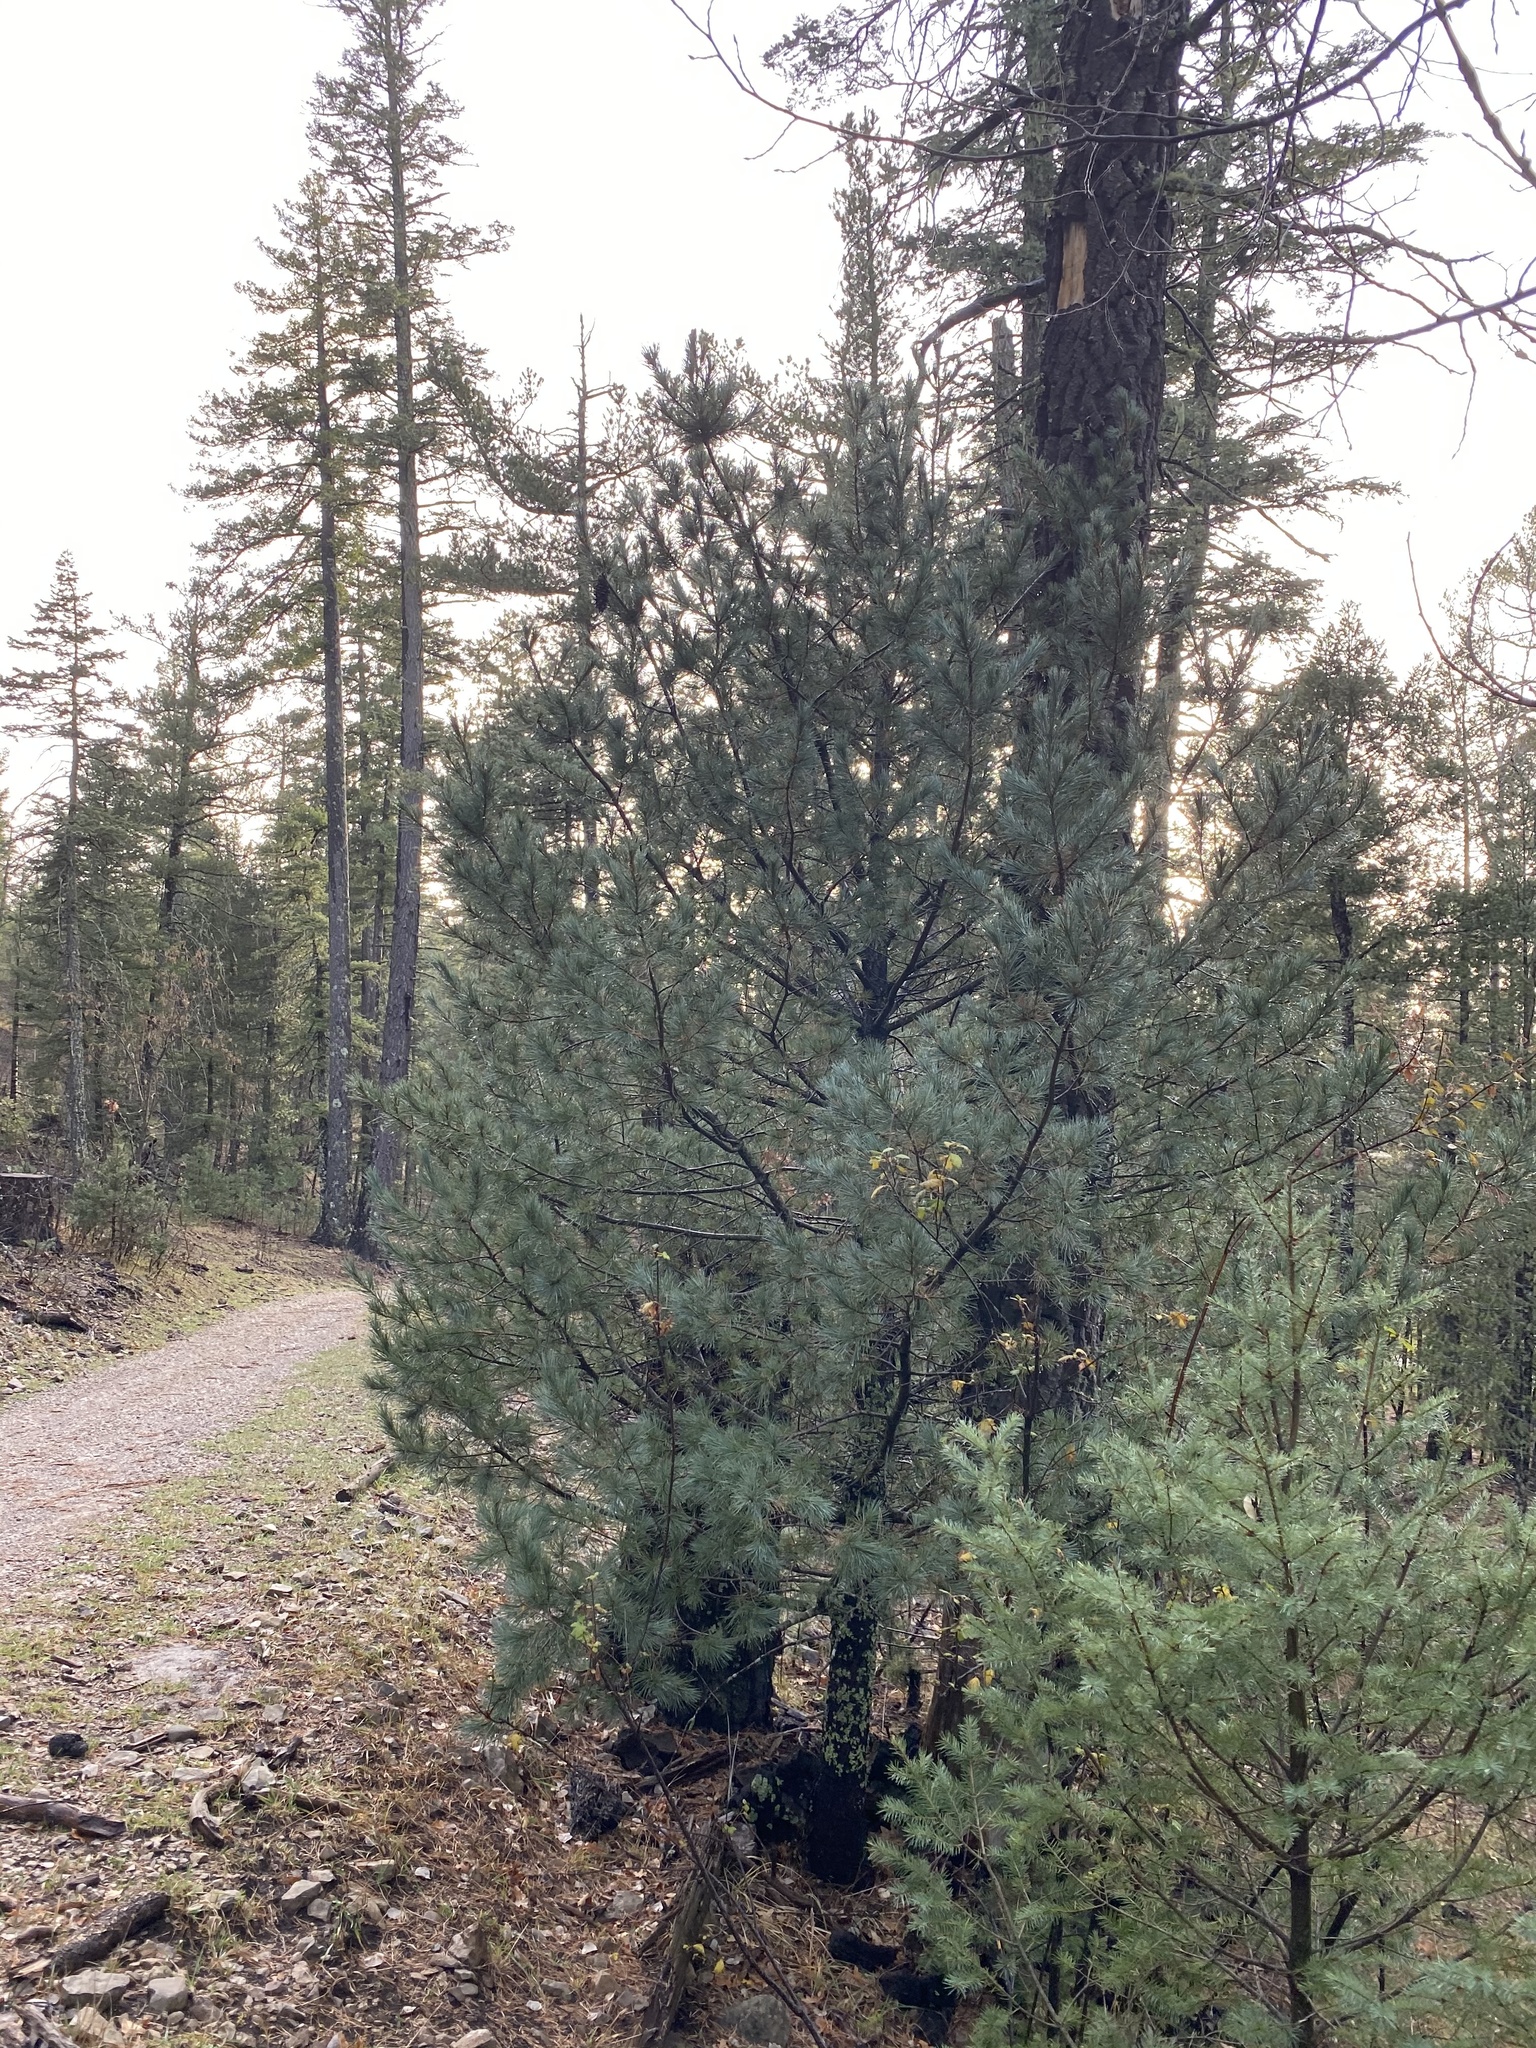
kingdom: Plantae
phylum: Tracheophyta
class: Pinopsida
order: Pinales
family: Pinaceae
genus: Pinus
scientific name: Pinus strobiformis
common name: Southwestern white pine
